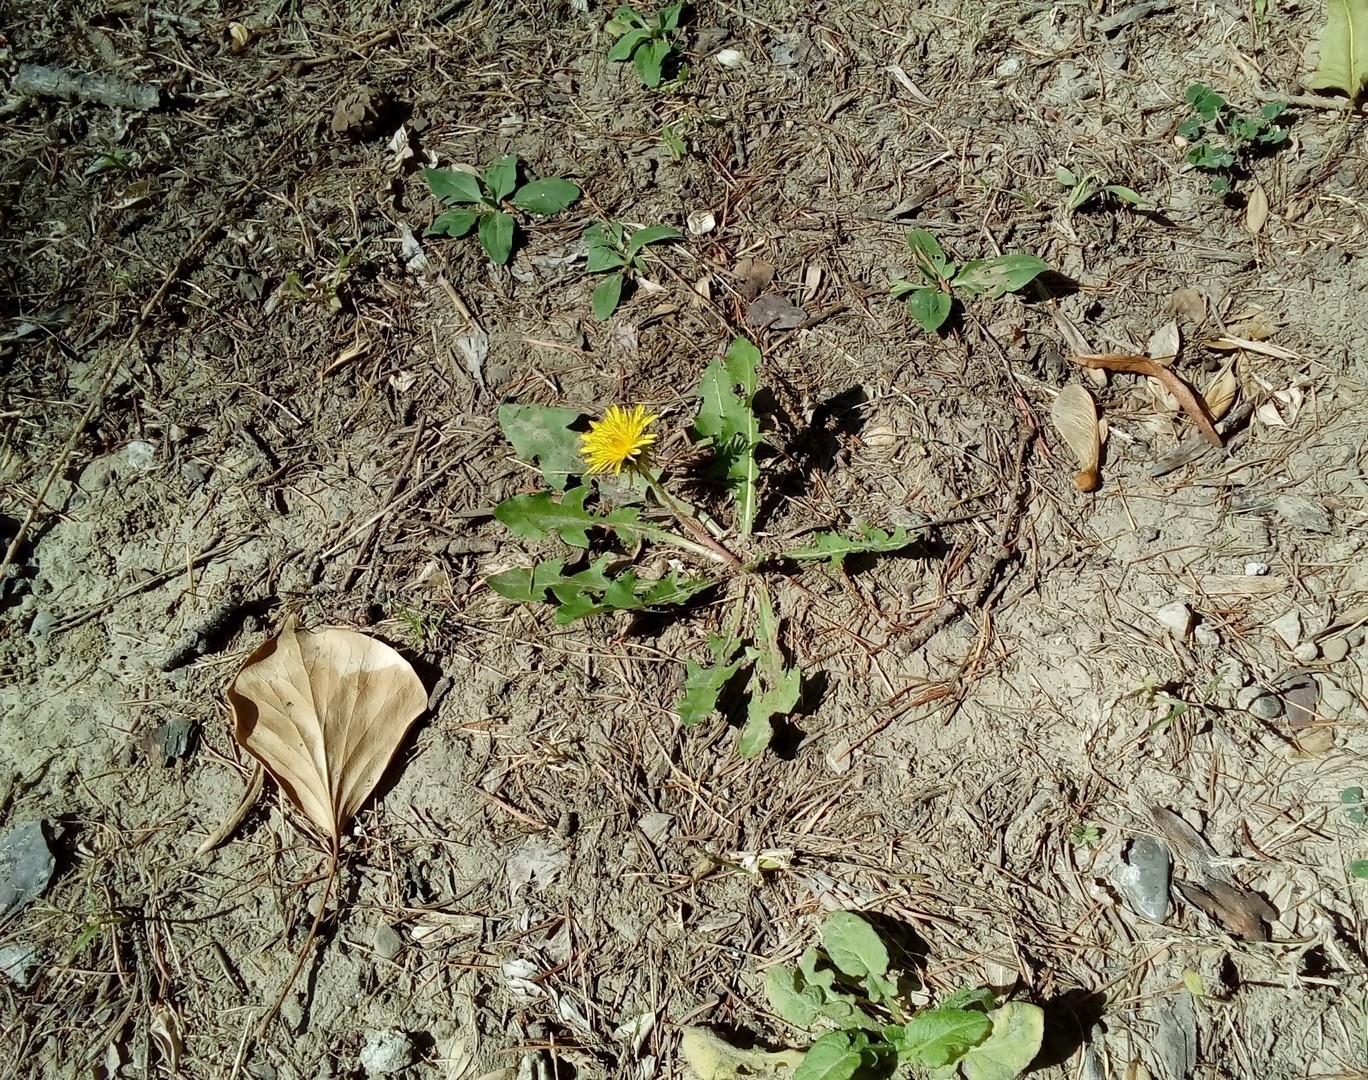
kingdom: Plantae
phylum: Tracheophyta
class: Magnoliopsida
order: Asterales
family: Asteraceae
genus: Taraxacum
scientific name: Taraxacum officinale
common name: Common dandelion
